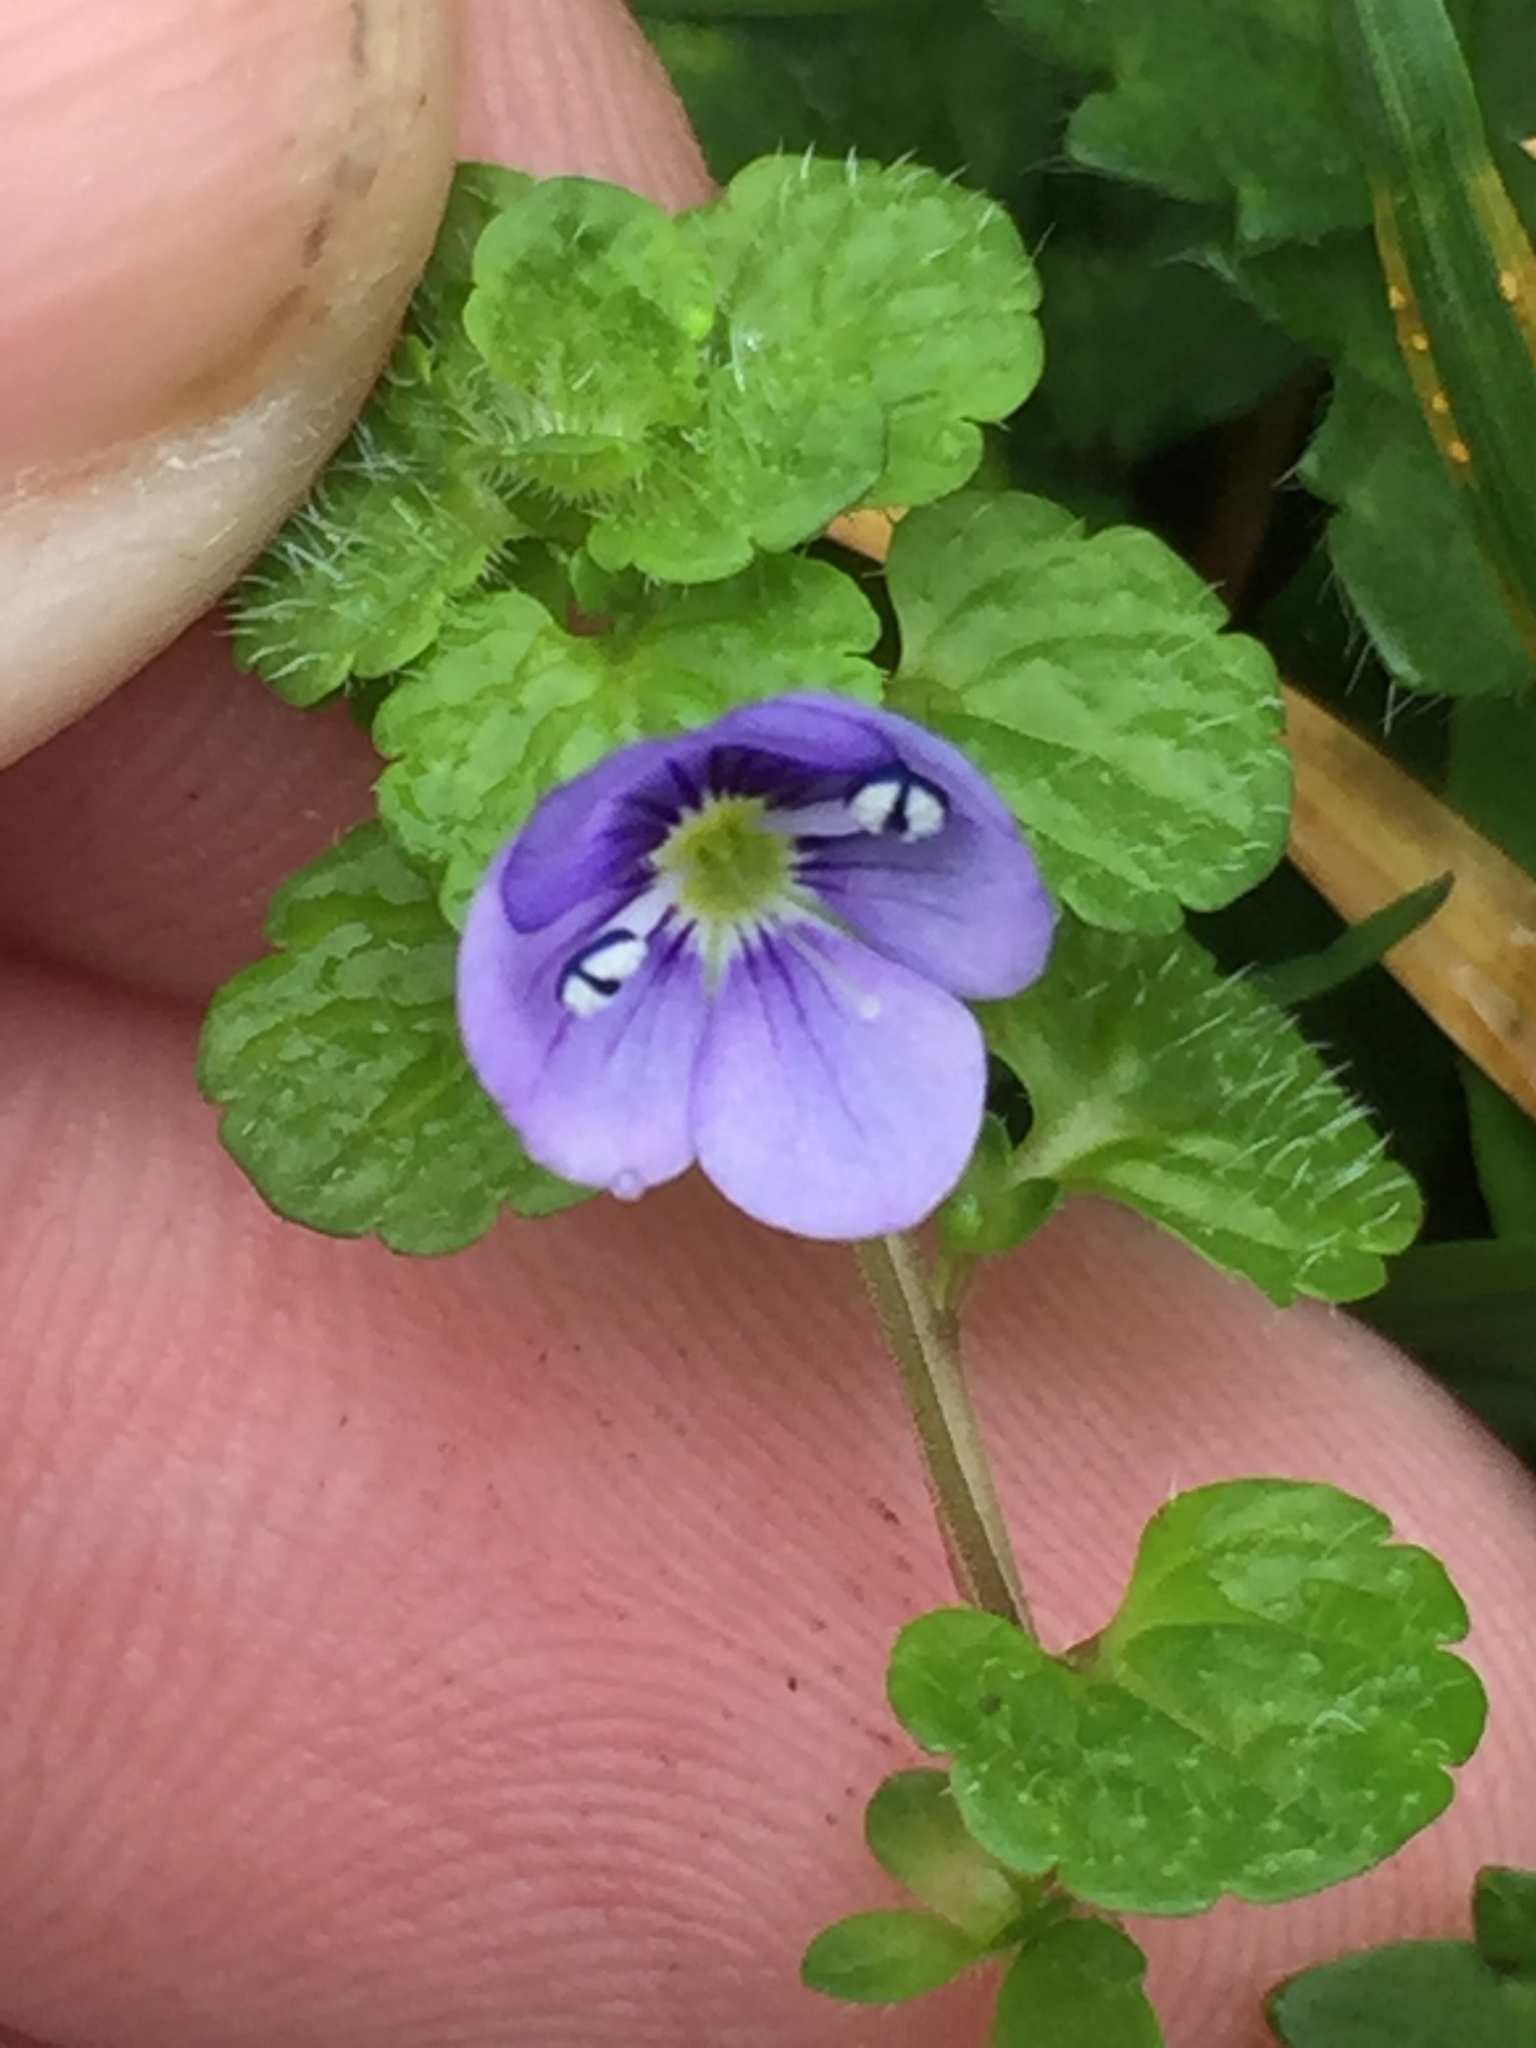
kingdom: Plantae
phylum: Tracheophyta
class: Magnoliopsida
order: Lamiales
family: Plantaginaceae
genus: Veronica
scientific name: Veronica filiformis
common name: Slender speedwell
